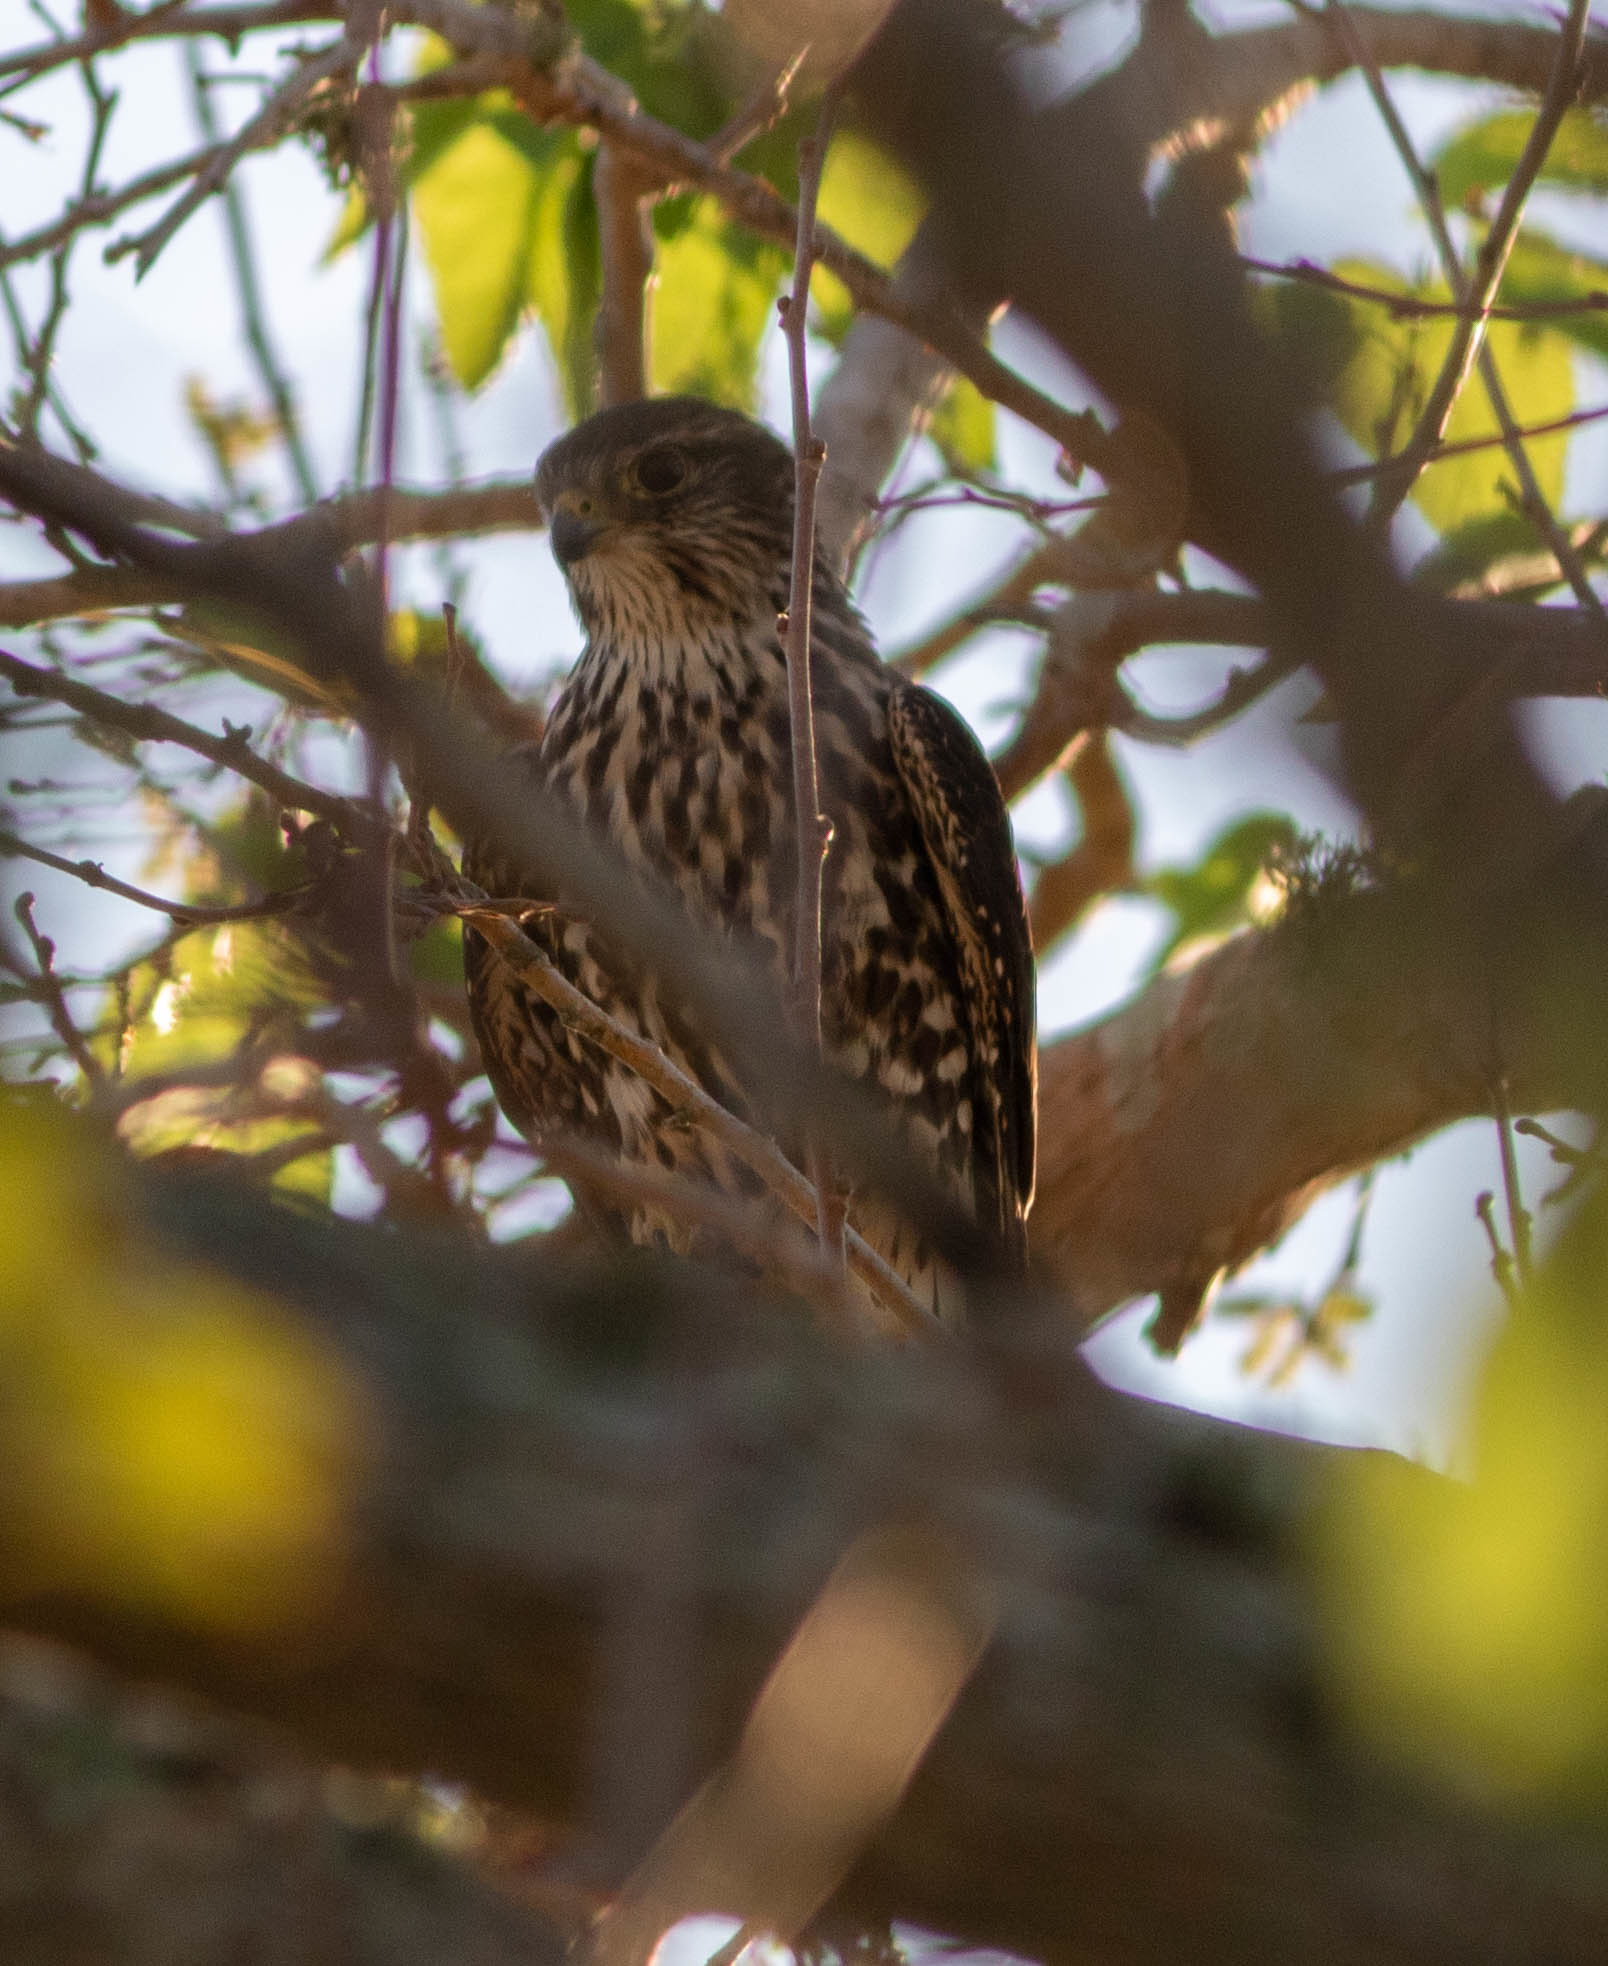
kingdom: Animalia
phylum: Chordata
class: Aves
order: Falconiformes
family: Falconidae
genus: Falco
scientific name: Falco columbarius
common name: Merlin
